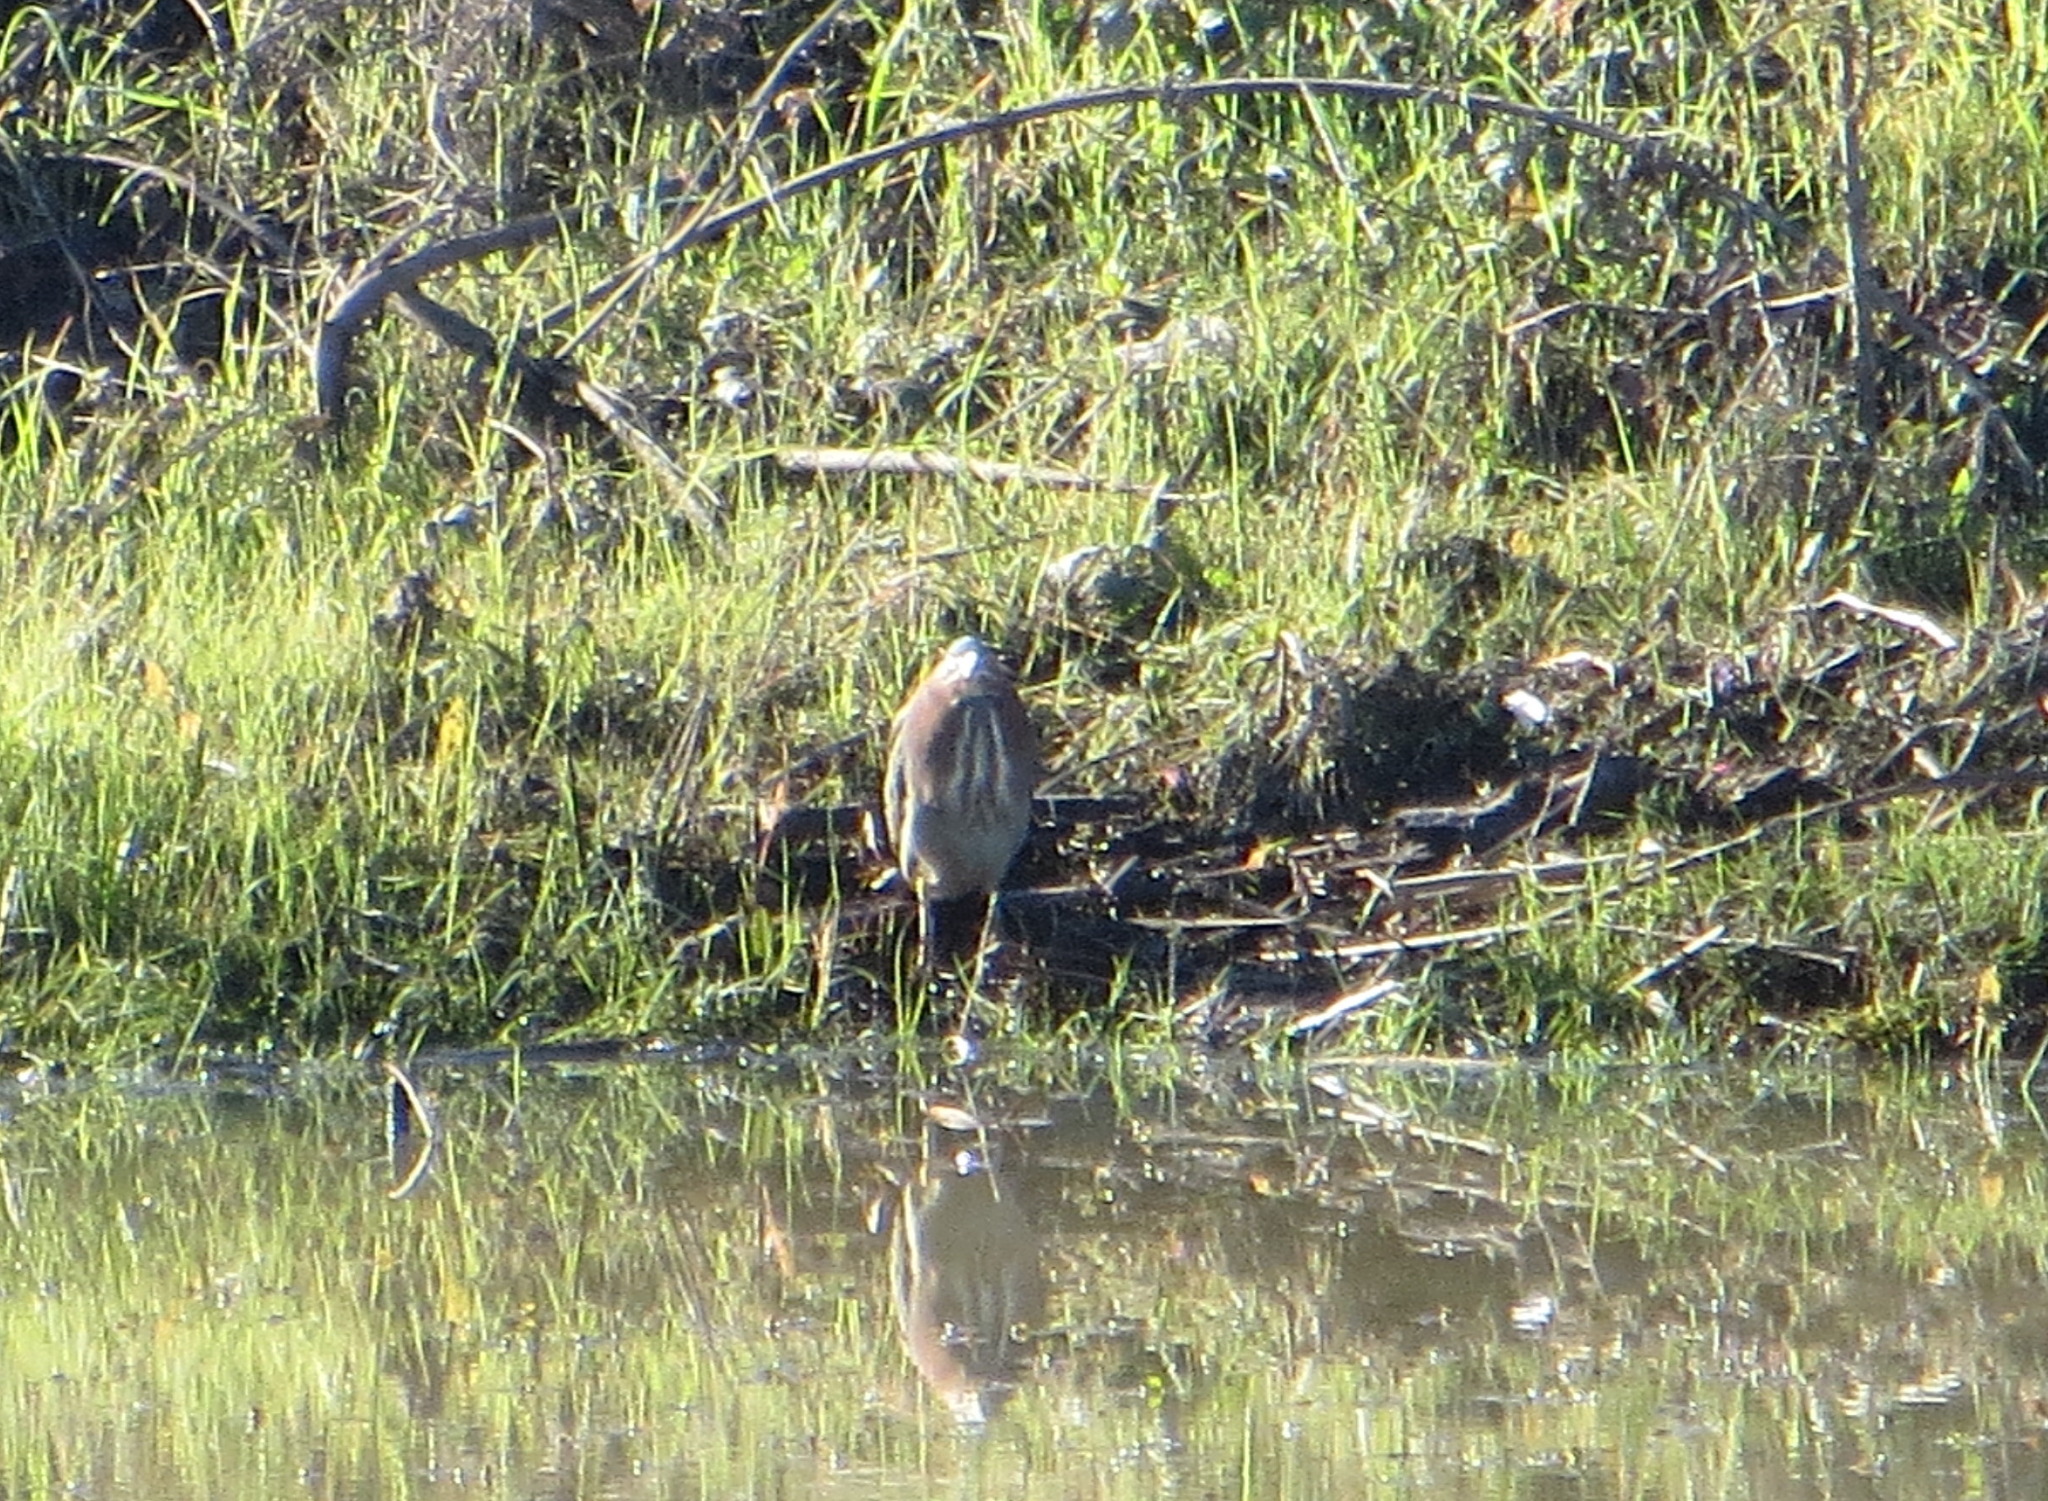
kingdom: Animalia
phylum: Chordata
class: Aves
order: Pelecaniformes
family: Ardeidae
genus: Butorides
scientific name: Butorides virescens
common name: Green heron
